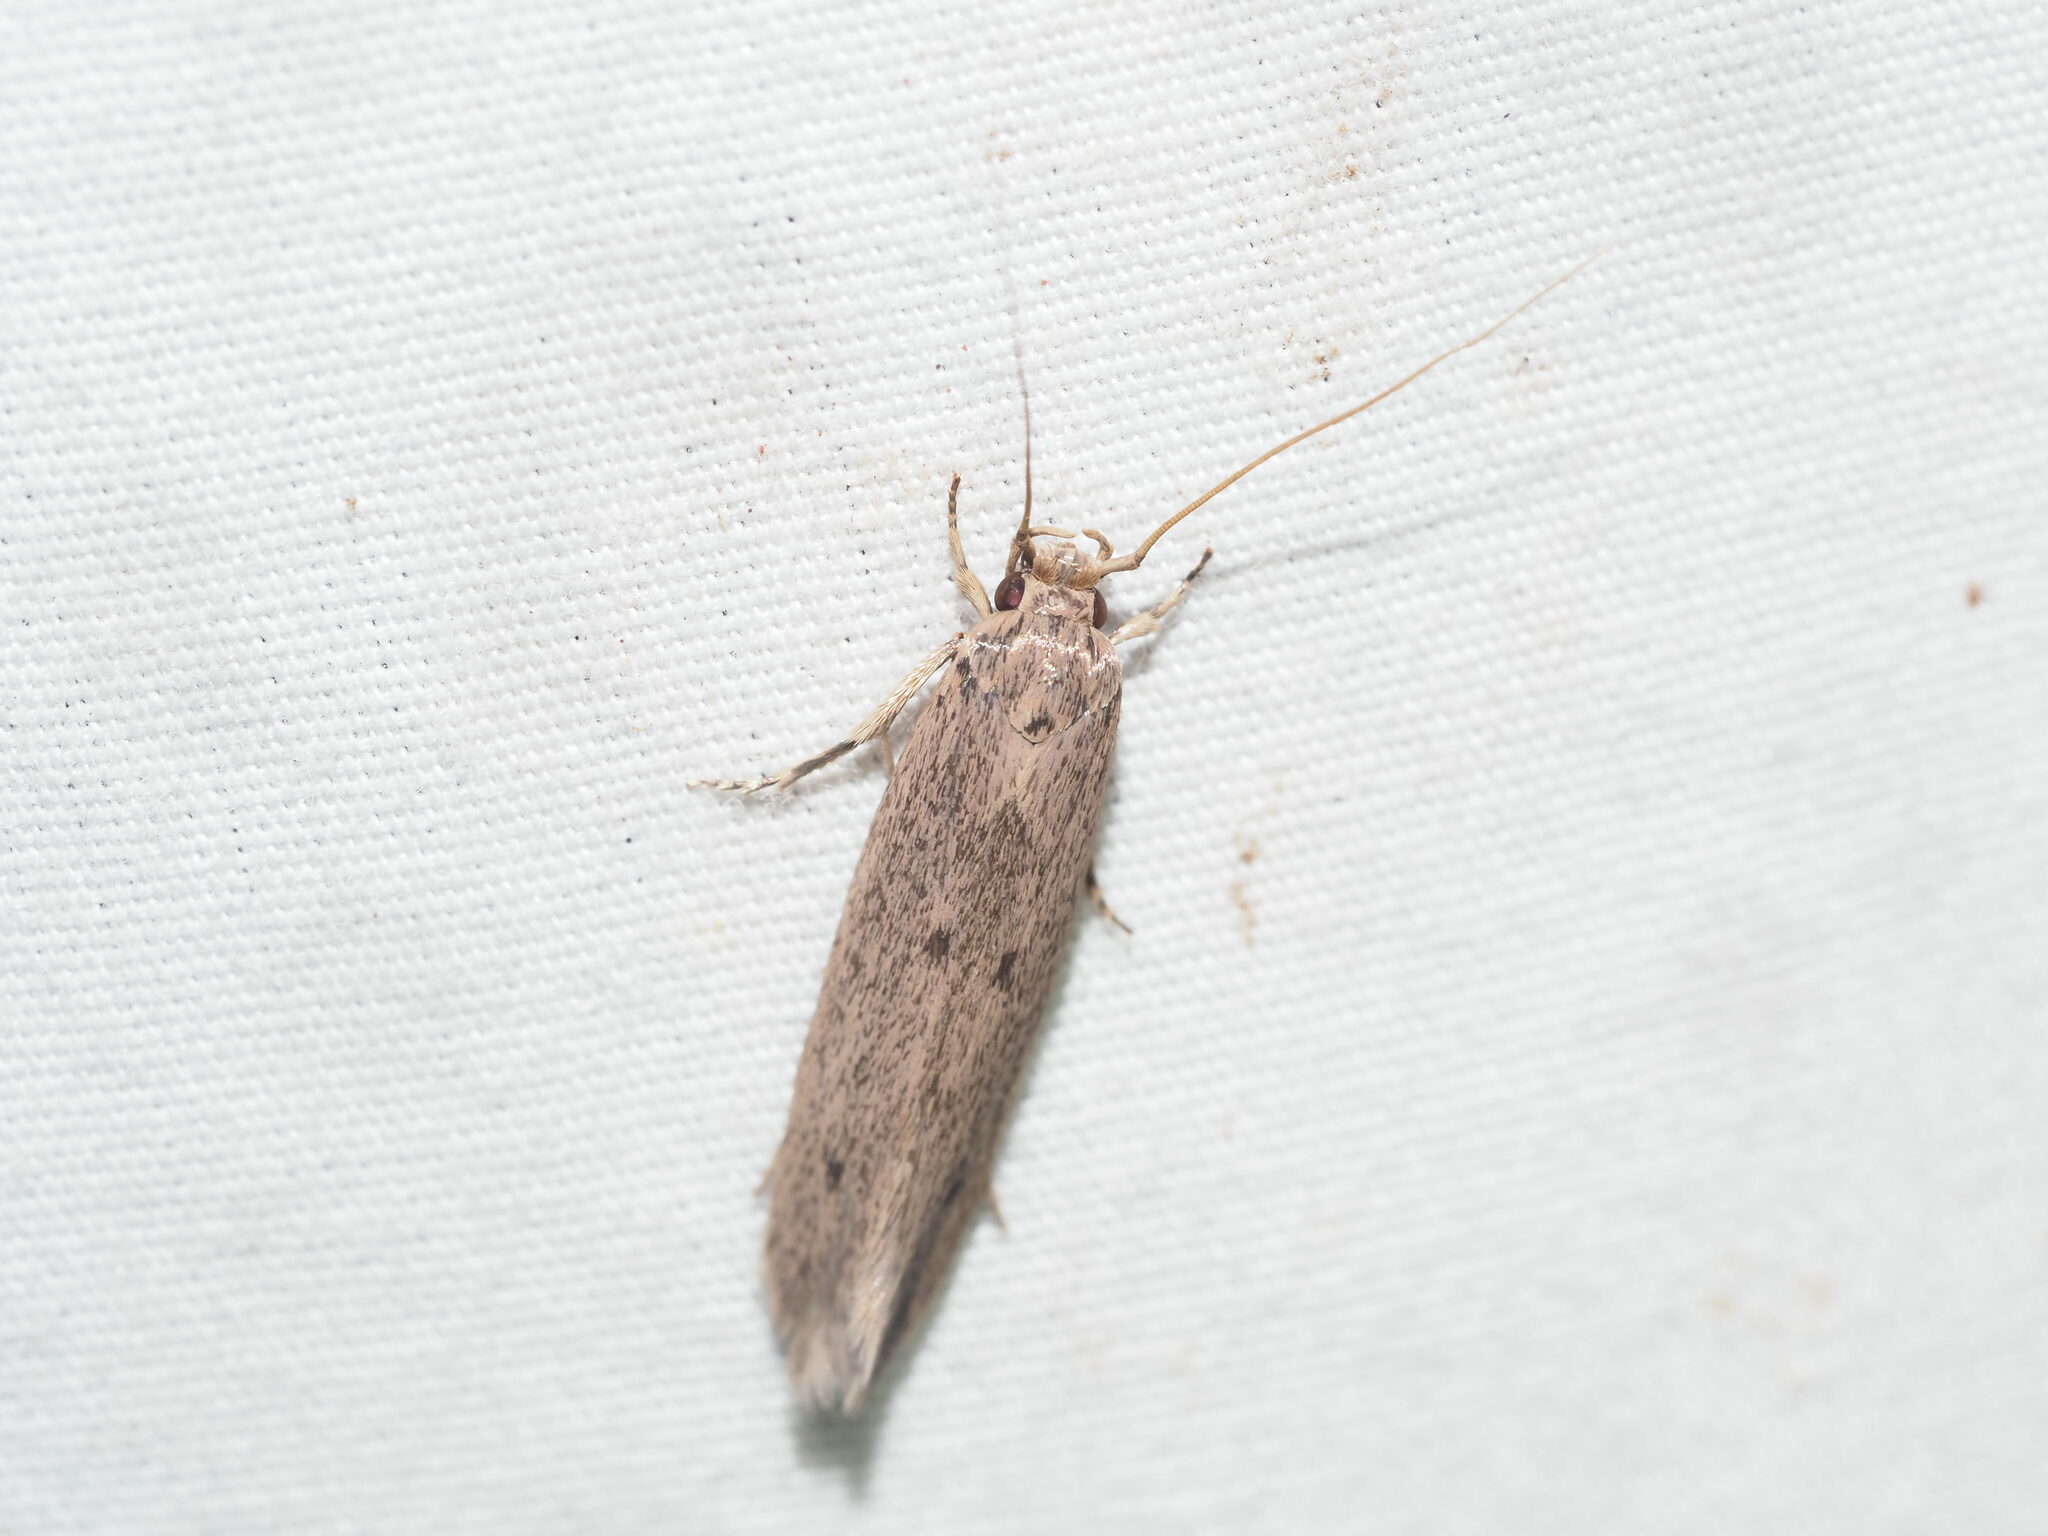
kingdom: Animalia
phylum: Arthropoda
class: Insecta
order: Lepidoptera
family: Tineidae
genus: Opogona
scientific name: Opogona sacchari
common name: Banana bud moth
